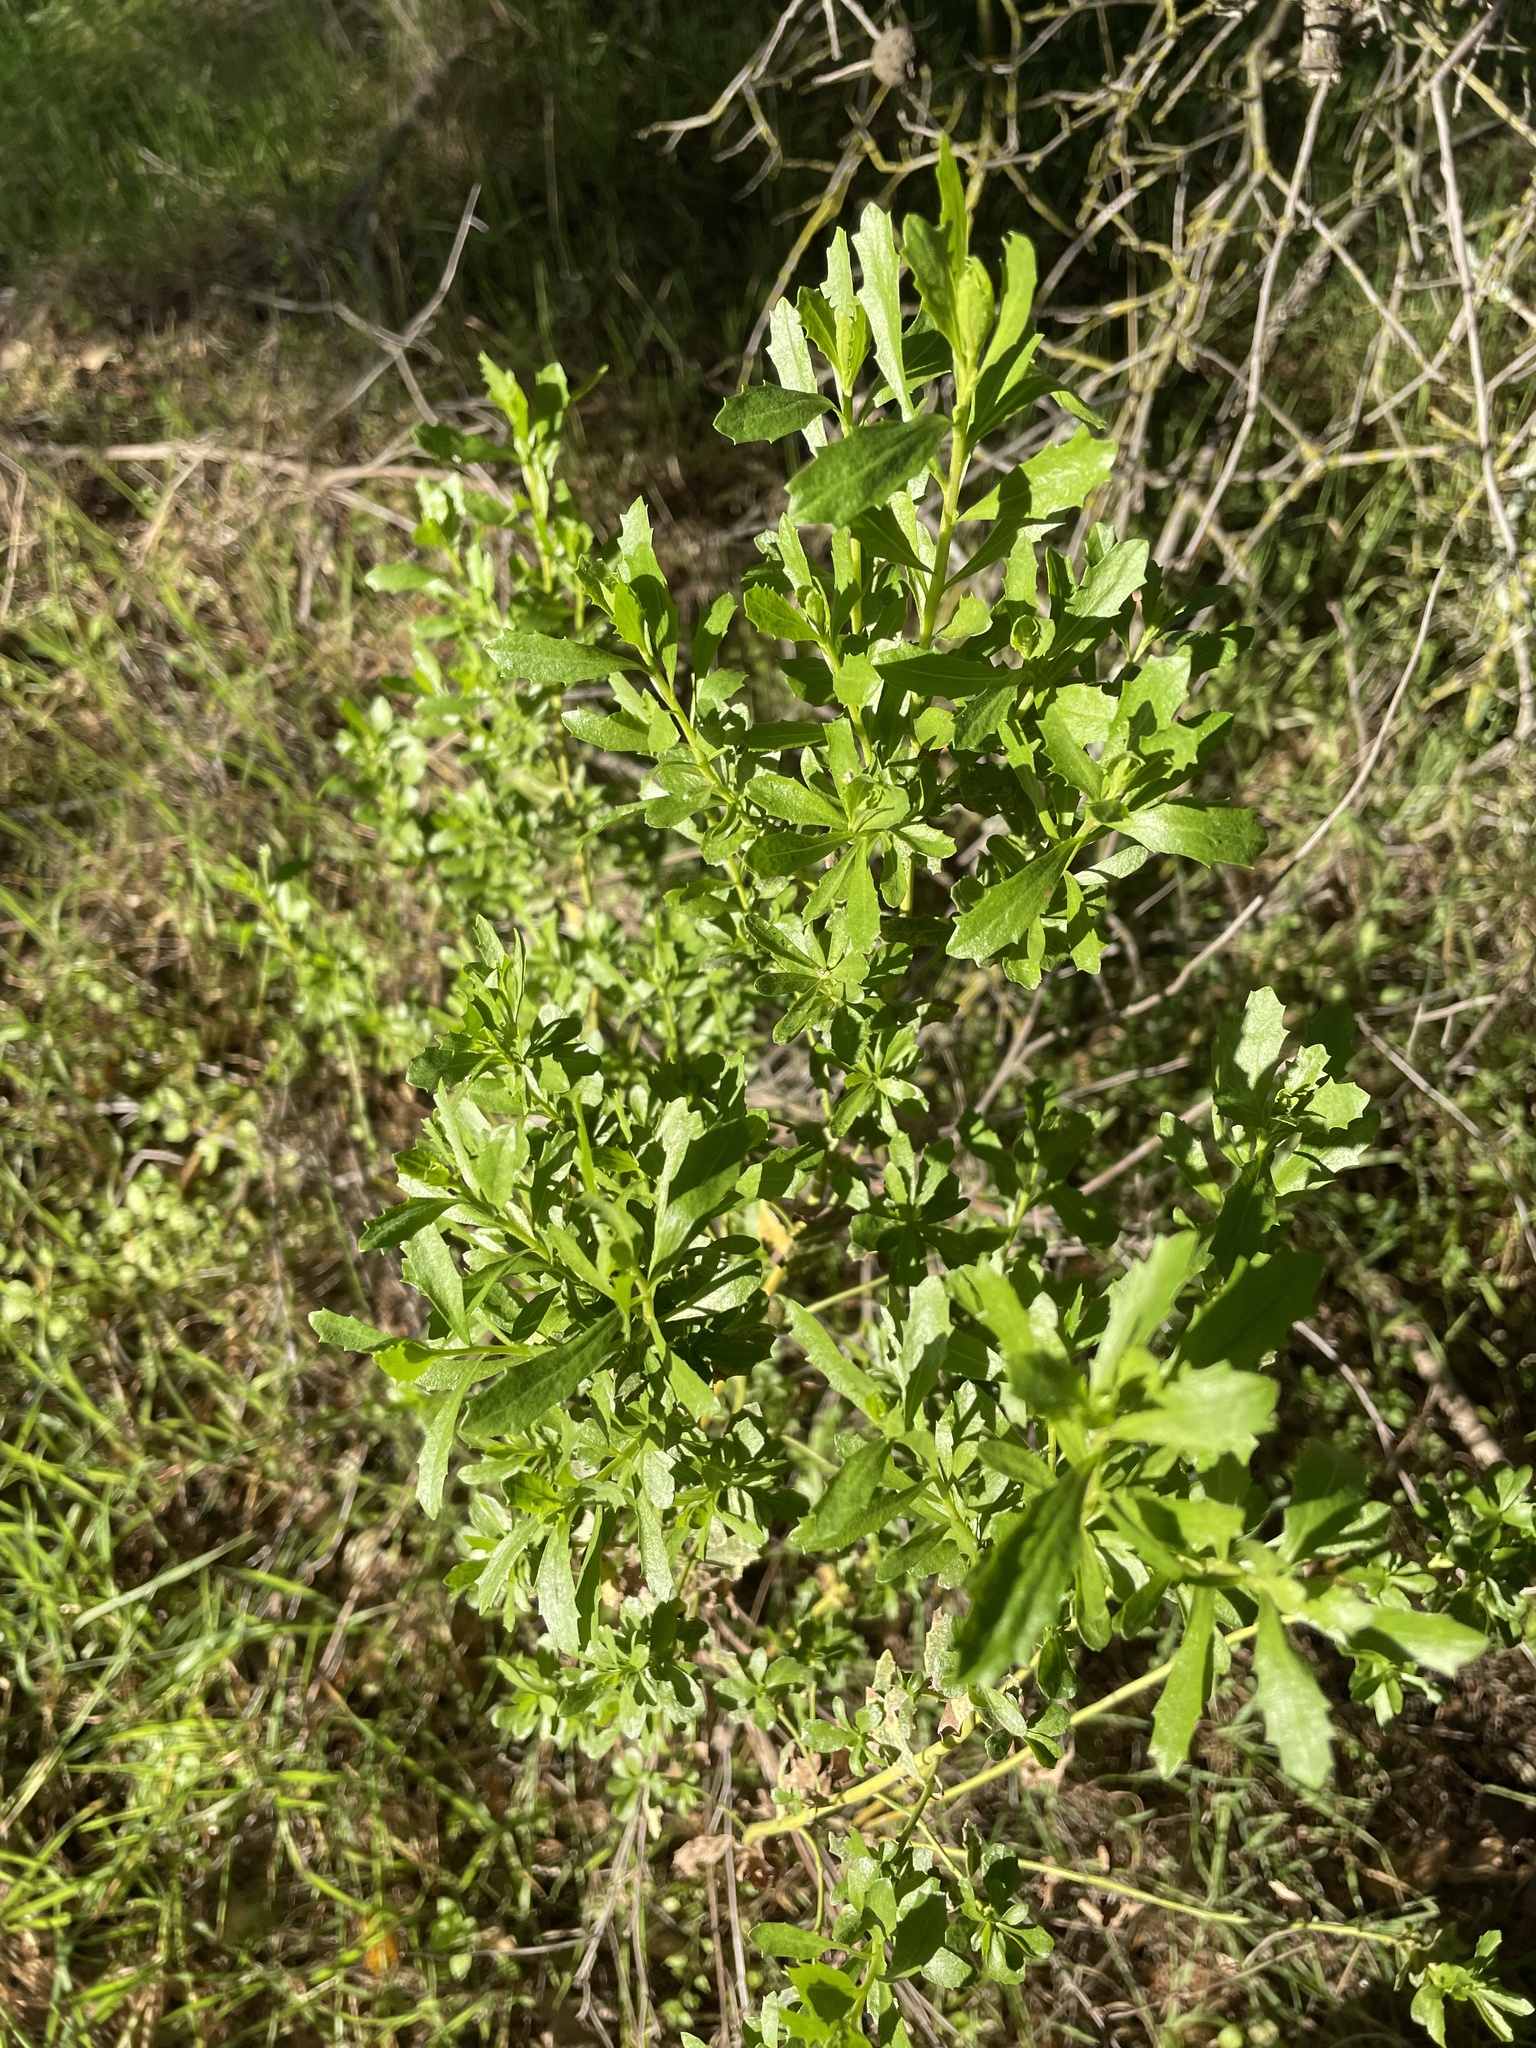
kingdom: Plantae
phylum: Tracheophyta
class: Magnoliopsida
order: Asterales
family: Asteraceae
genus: Baccharis
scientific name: Baccharis pilularis
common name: Coyotebrush
